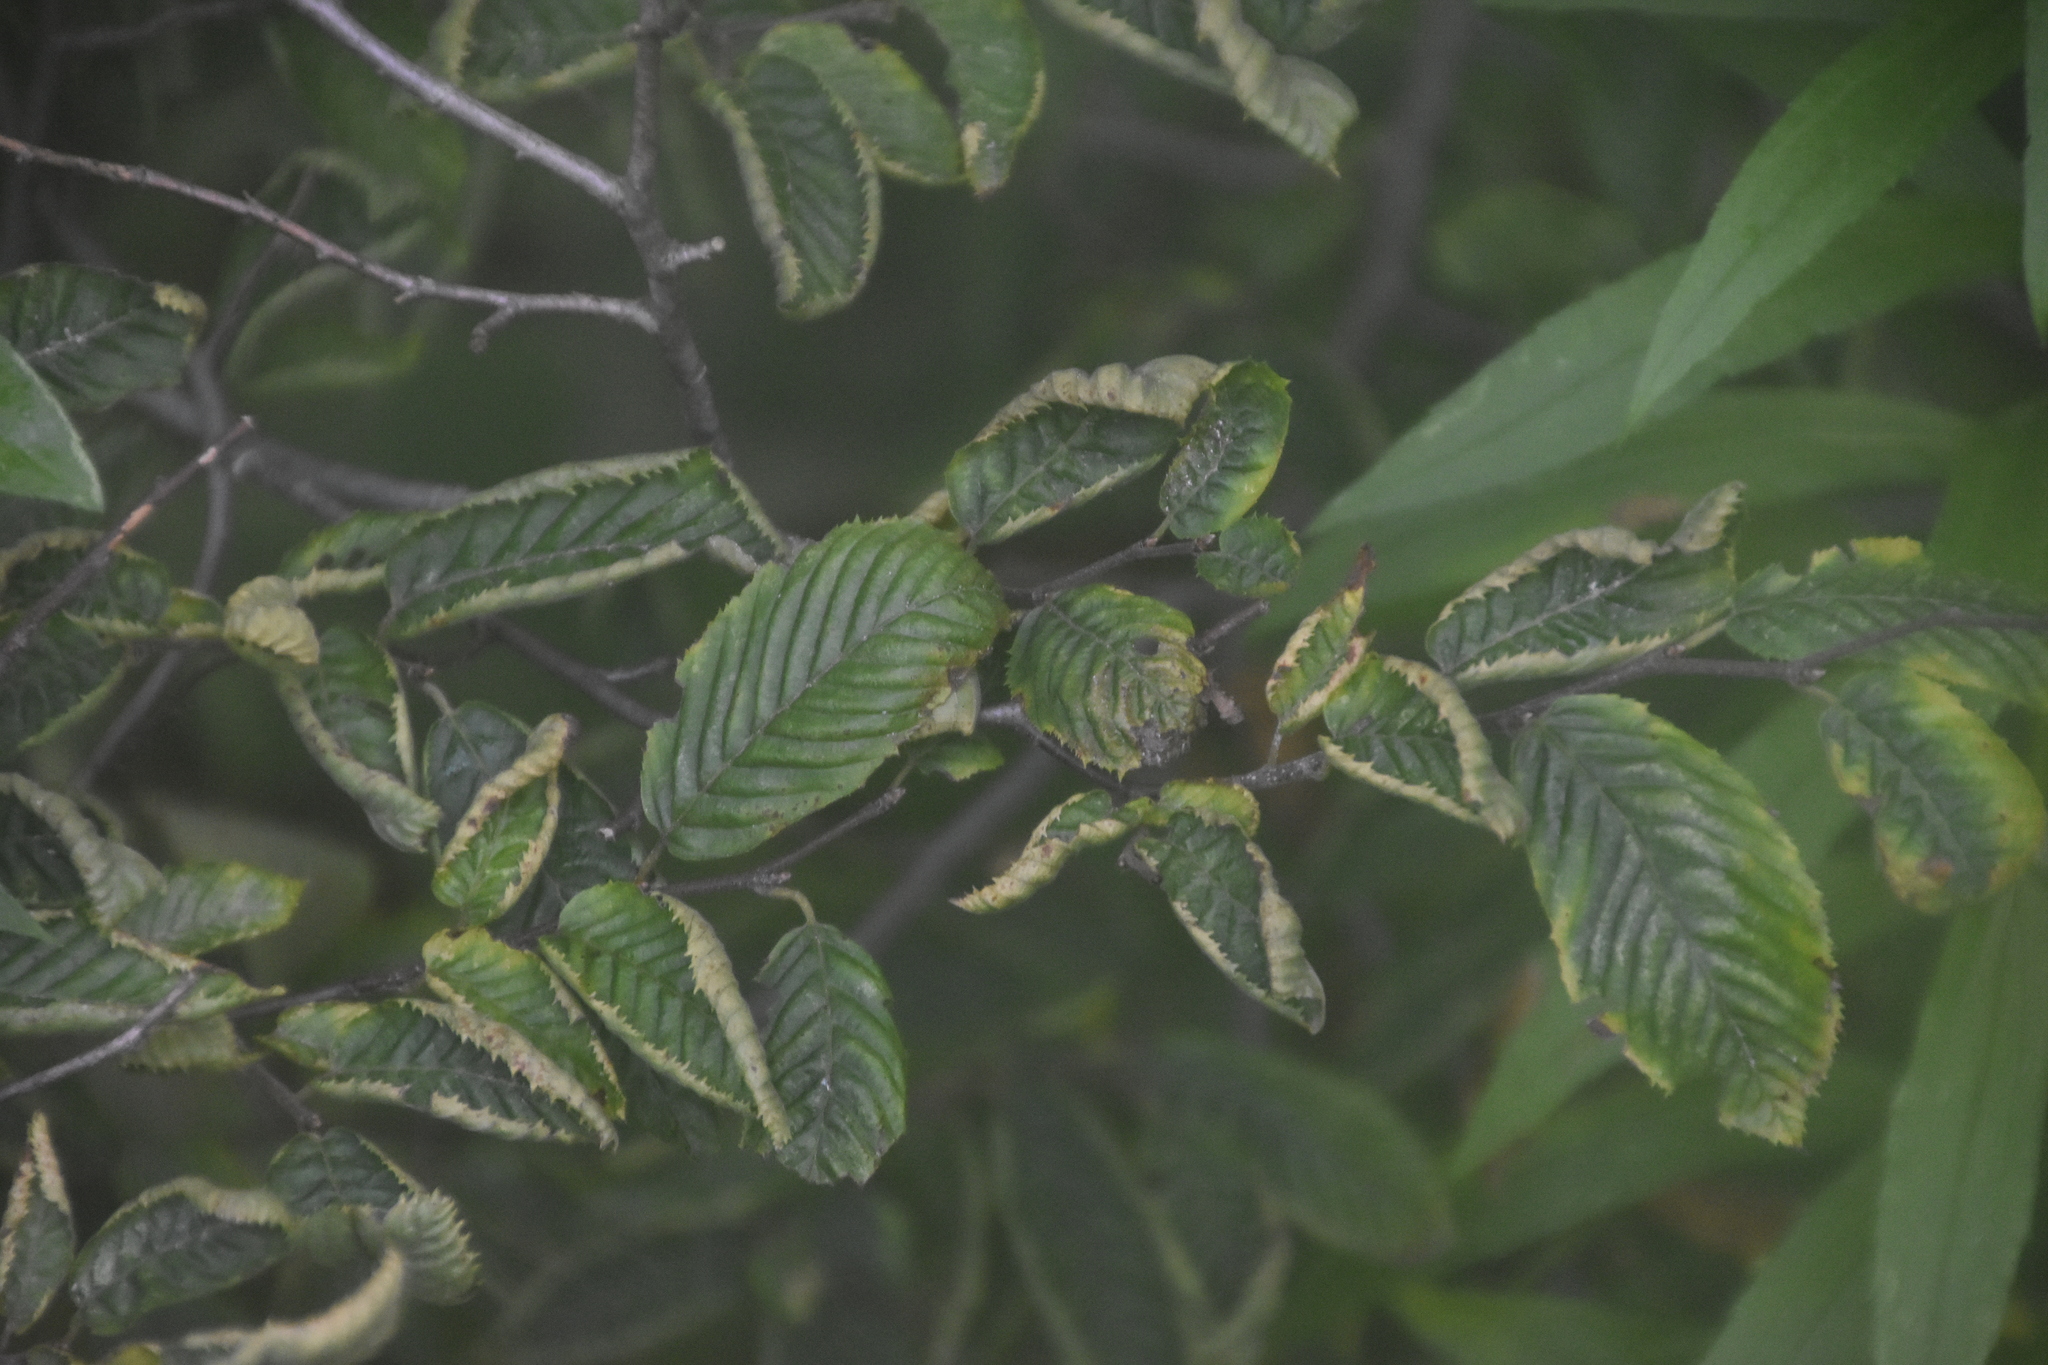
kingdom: Plantae
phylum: Tracheophyta
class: Magnoliopsida
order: Fagales
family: Betulaceae
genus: Carpinus
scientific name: Carpinus caroliniana
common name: American hornbeam
